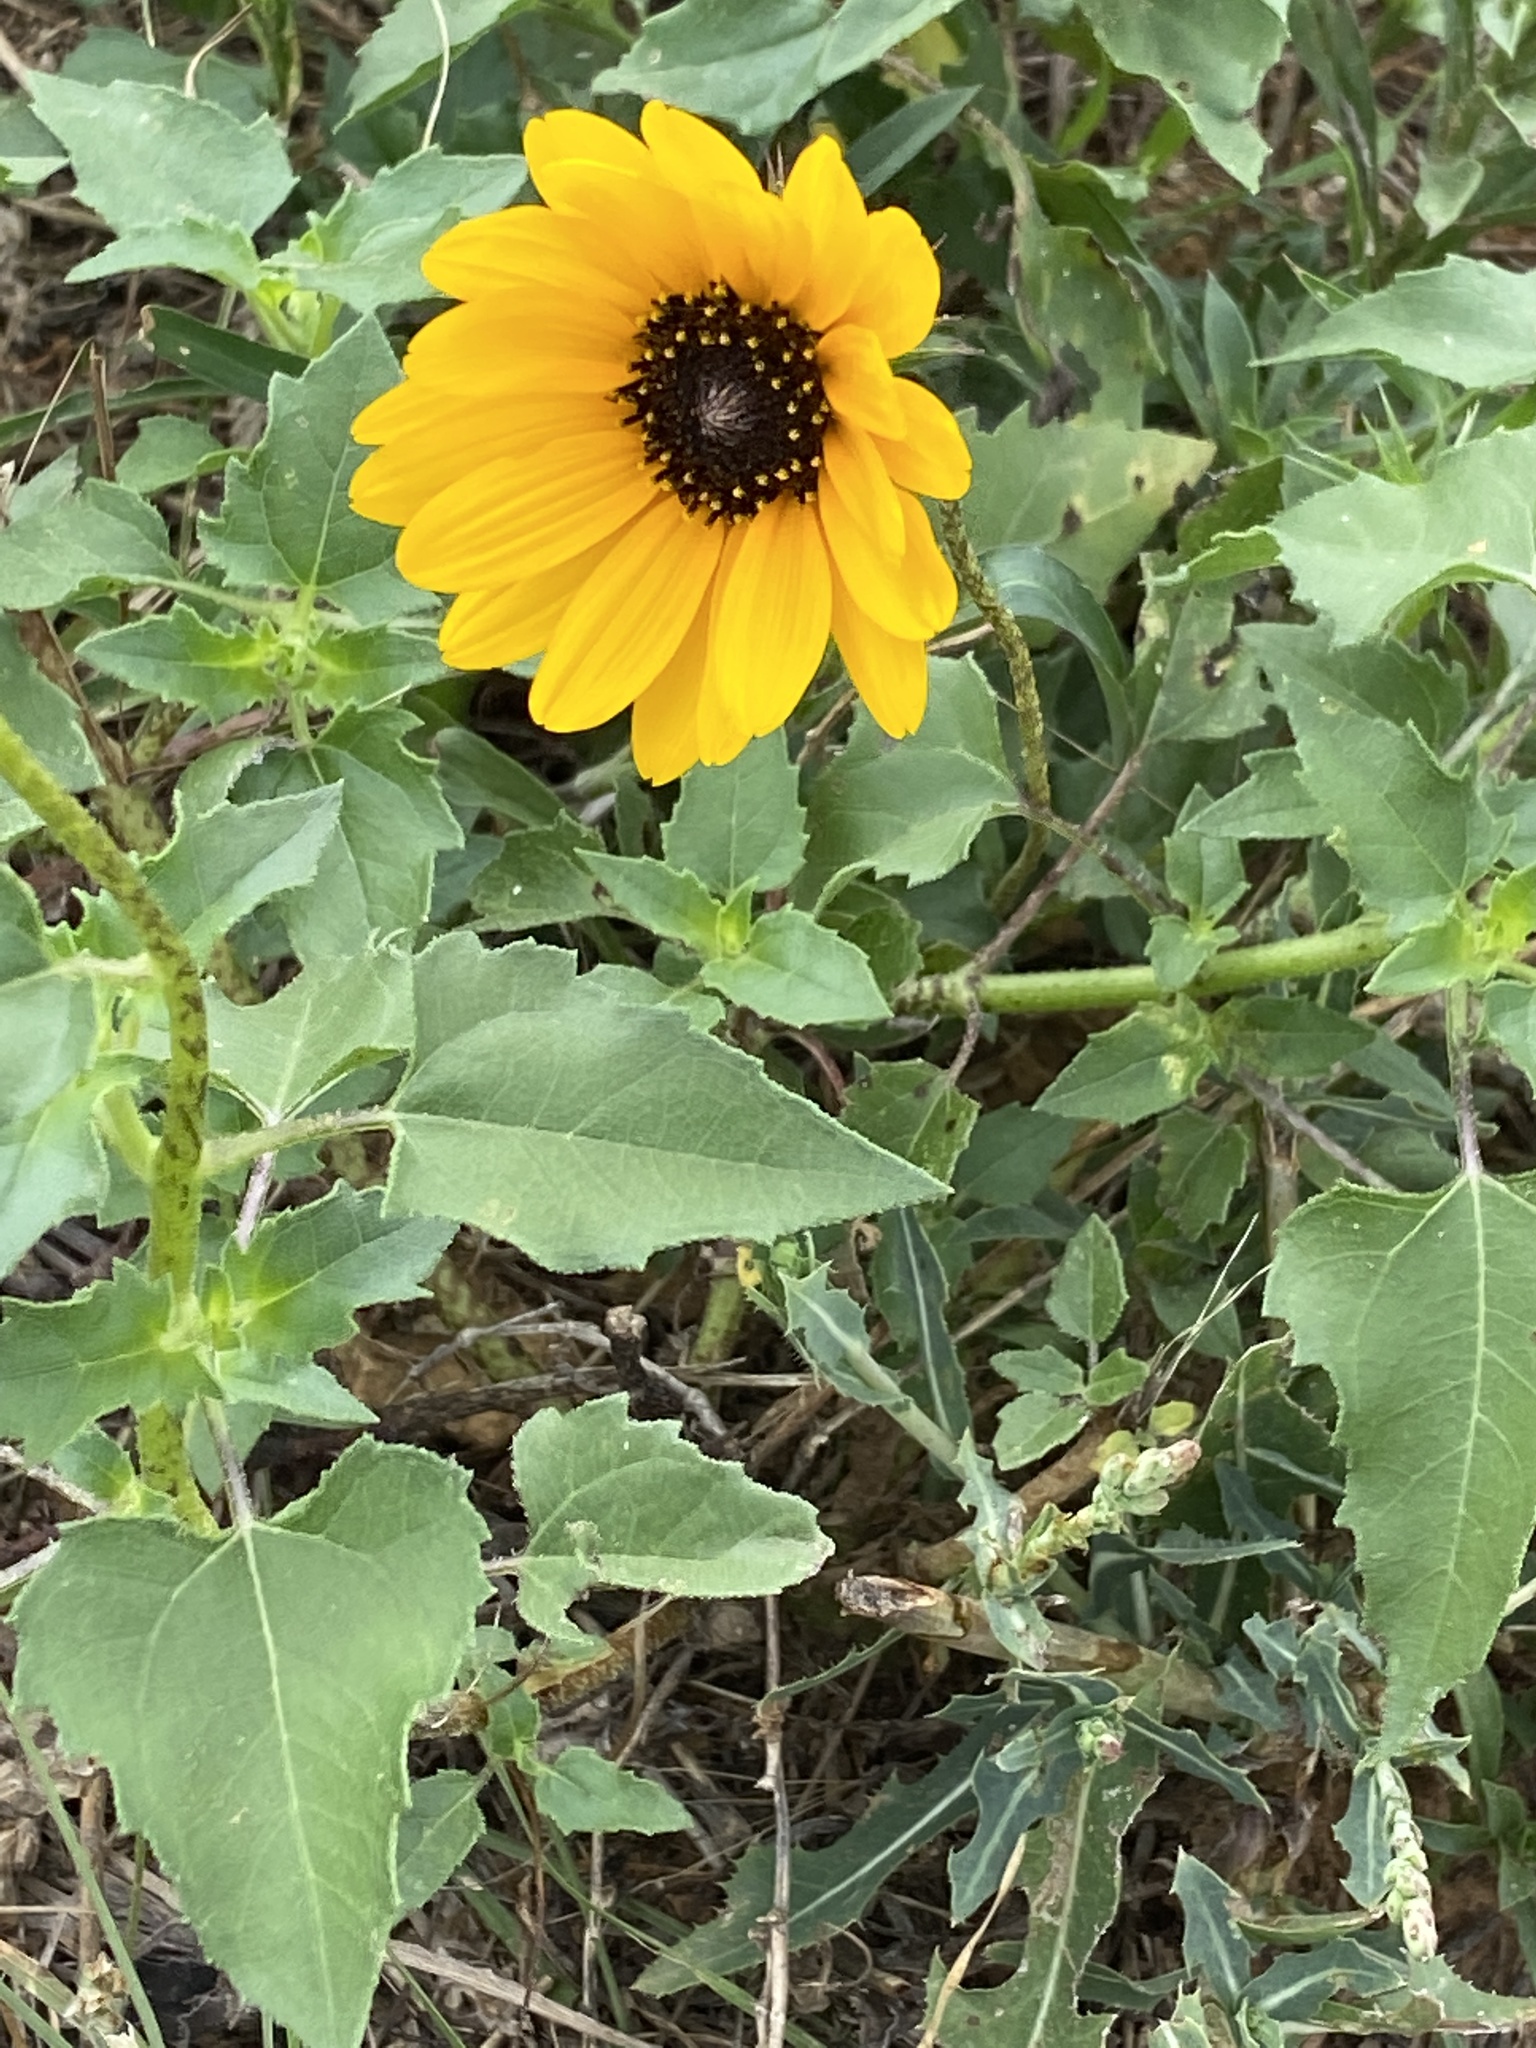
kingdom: Plantae
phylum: Tracheophyta
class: Magnoliopsida
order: Asterales
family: Asteraceae
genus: Helianthus
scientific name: Helianthus debilis
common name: Weak sunflower
